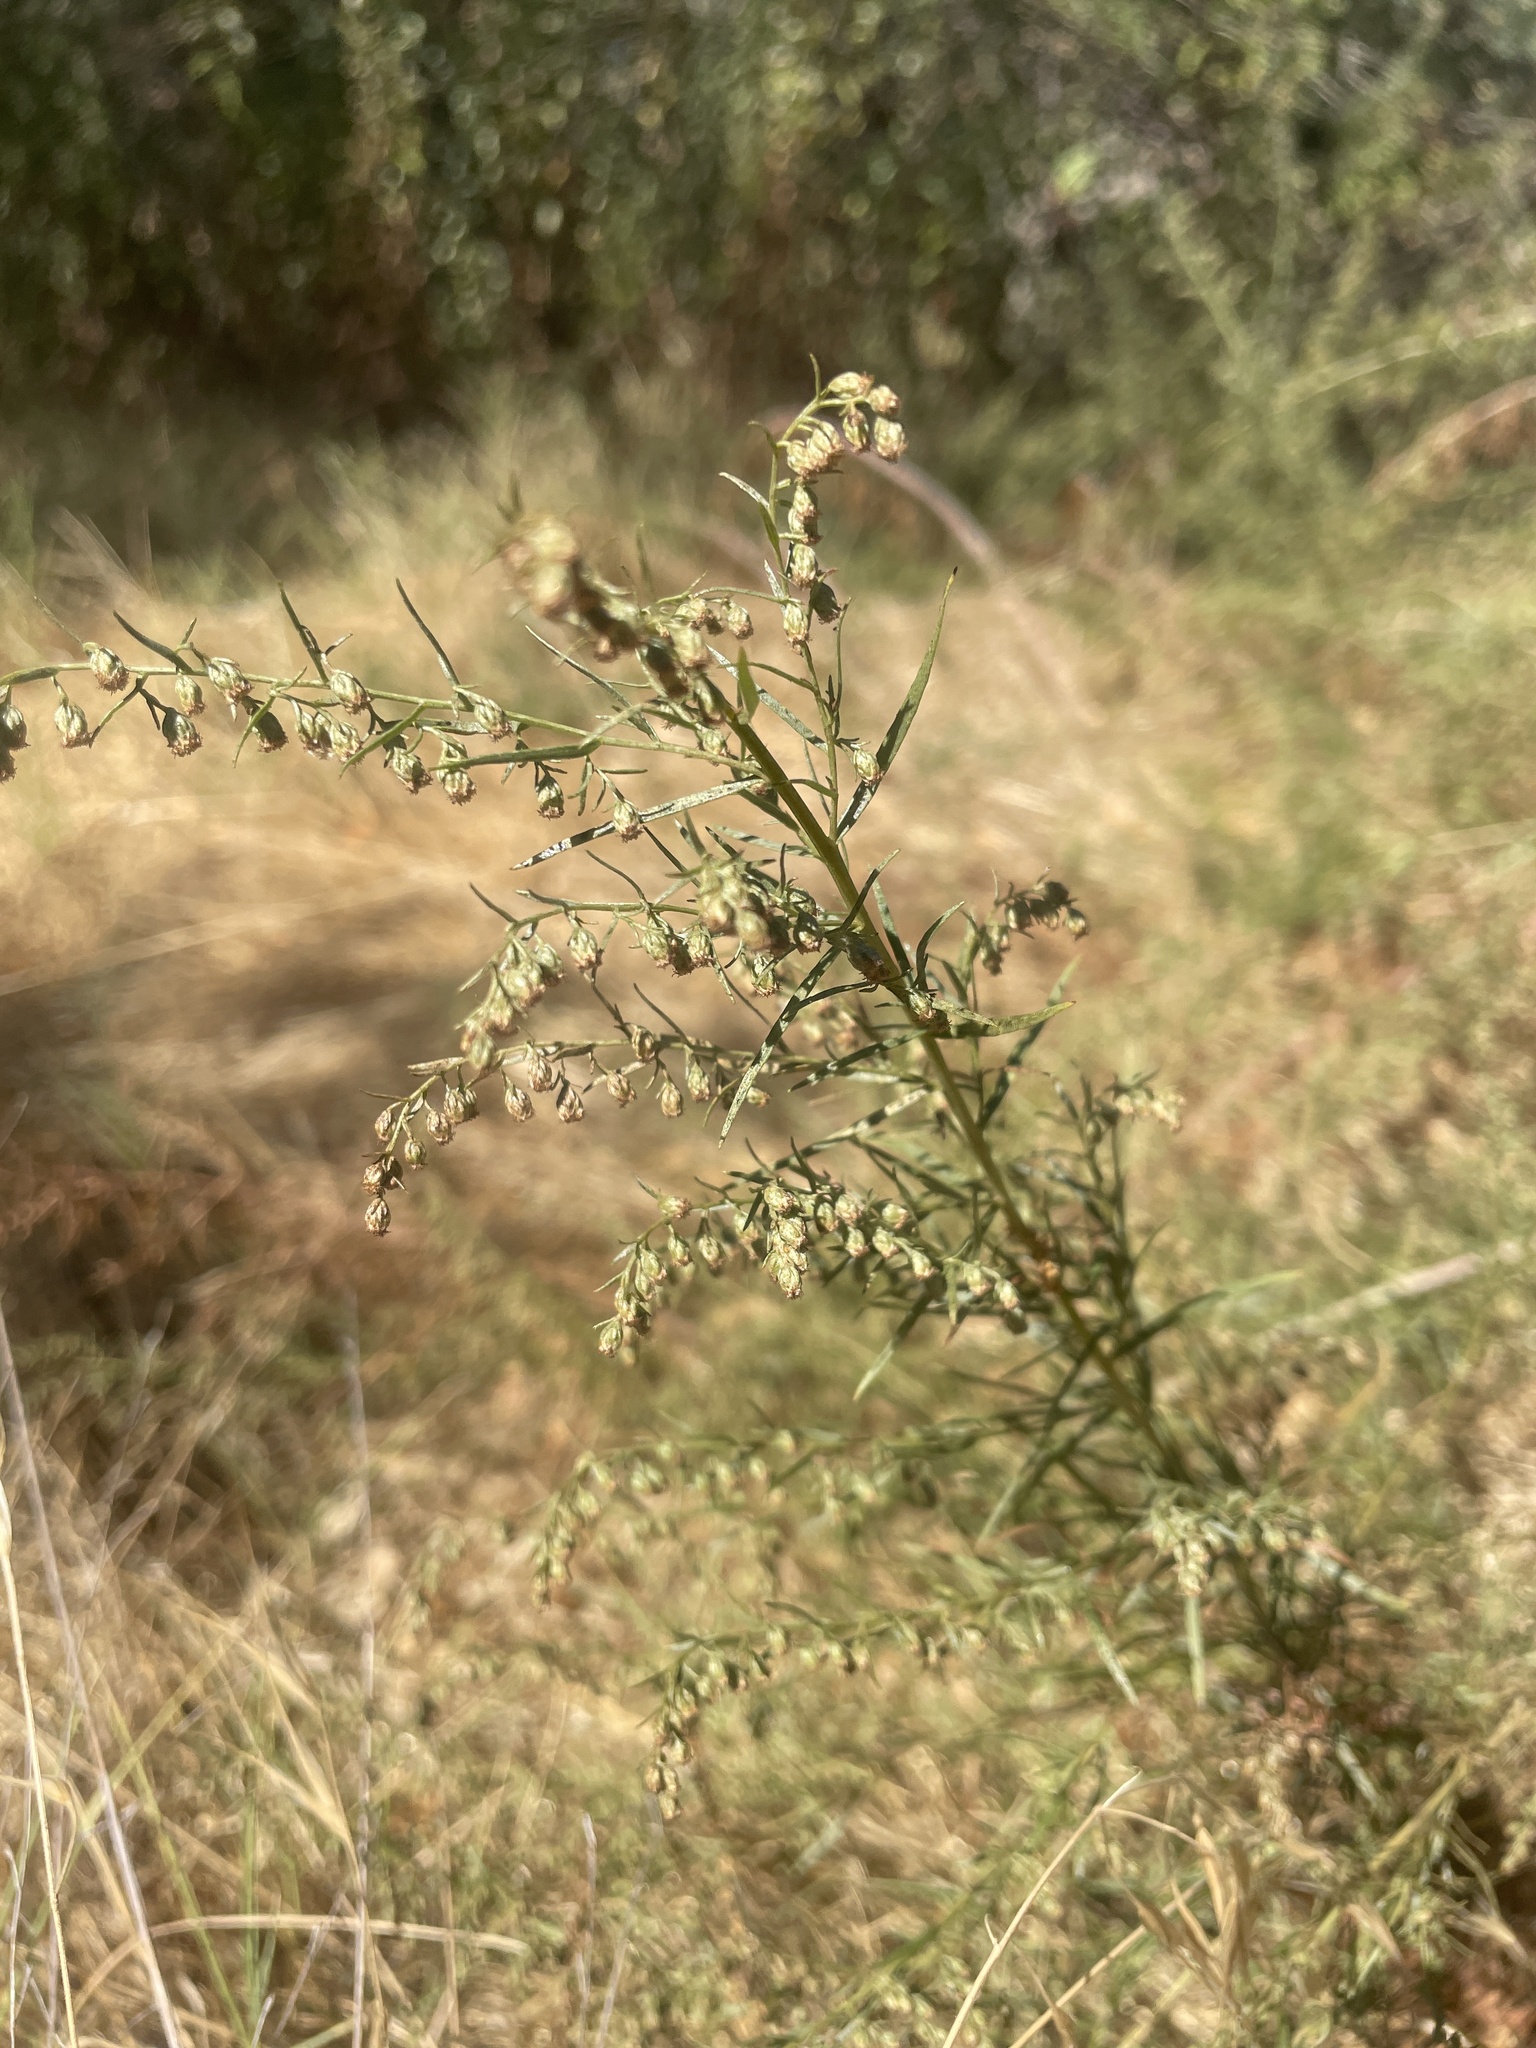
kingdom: Plantae
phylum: Tracheophyta
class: Magnoliopsida
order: Asterales
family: Asteraceae
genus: Artemisia
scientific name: Artemisia dracunculus
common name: Tarragon
